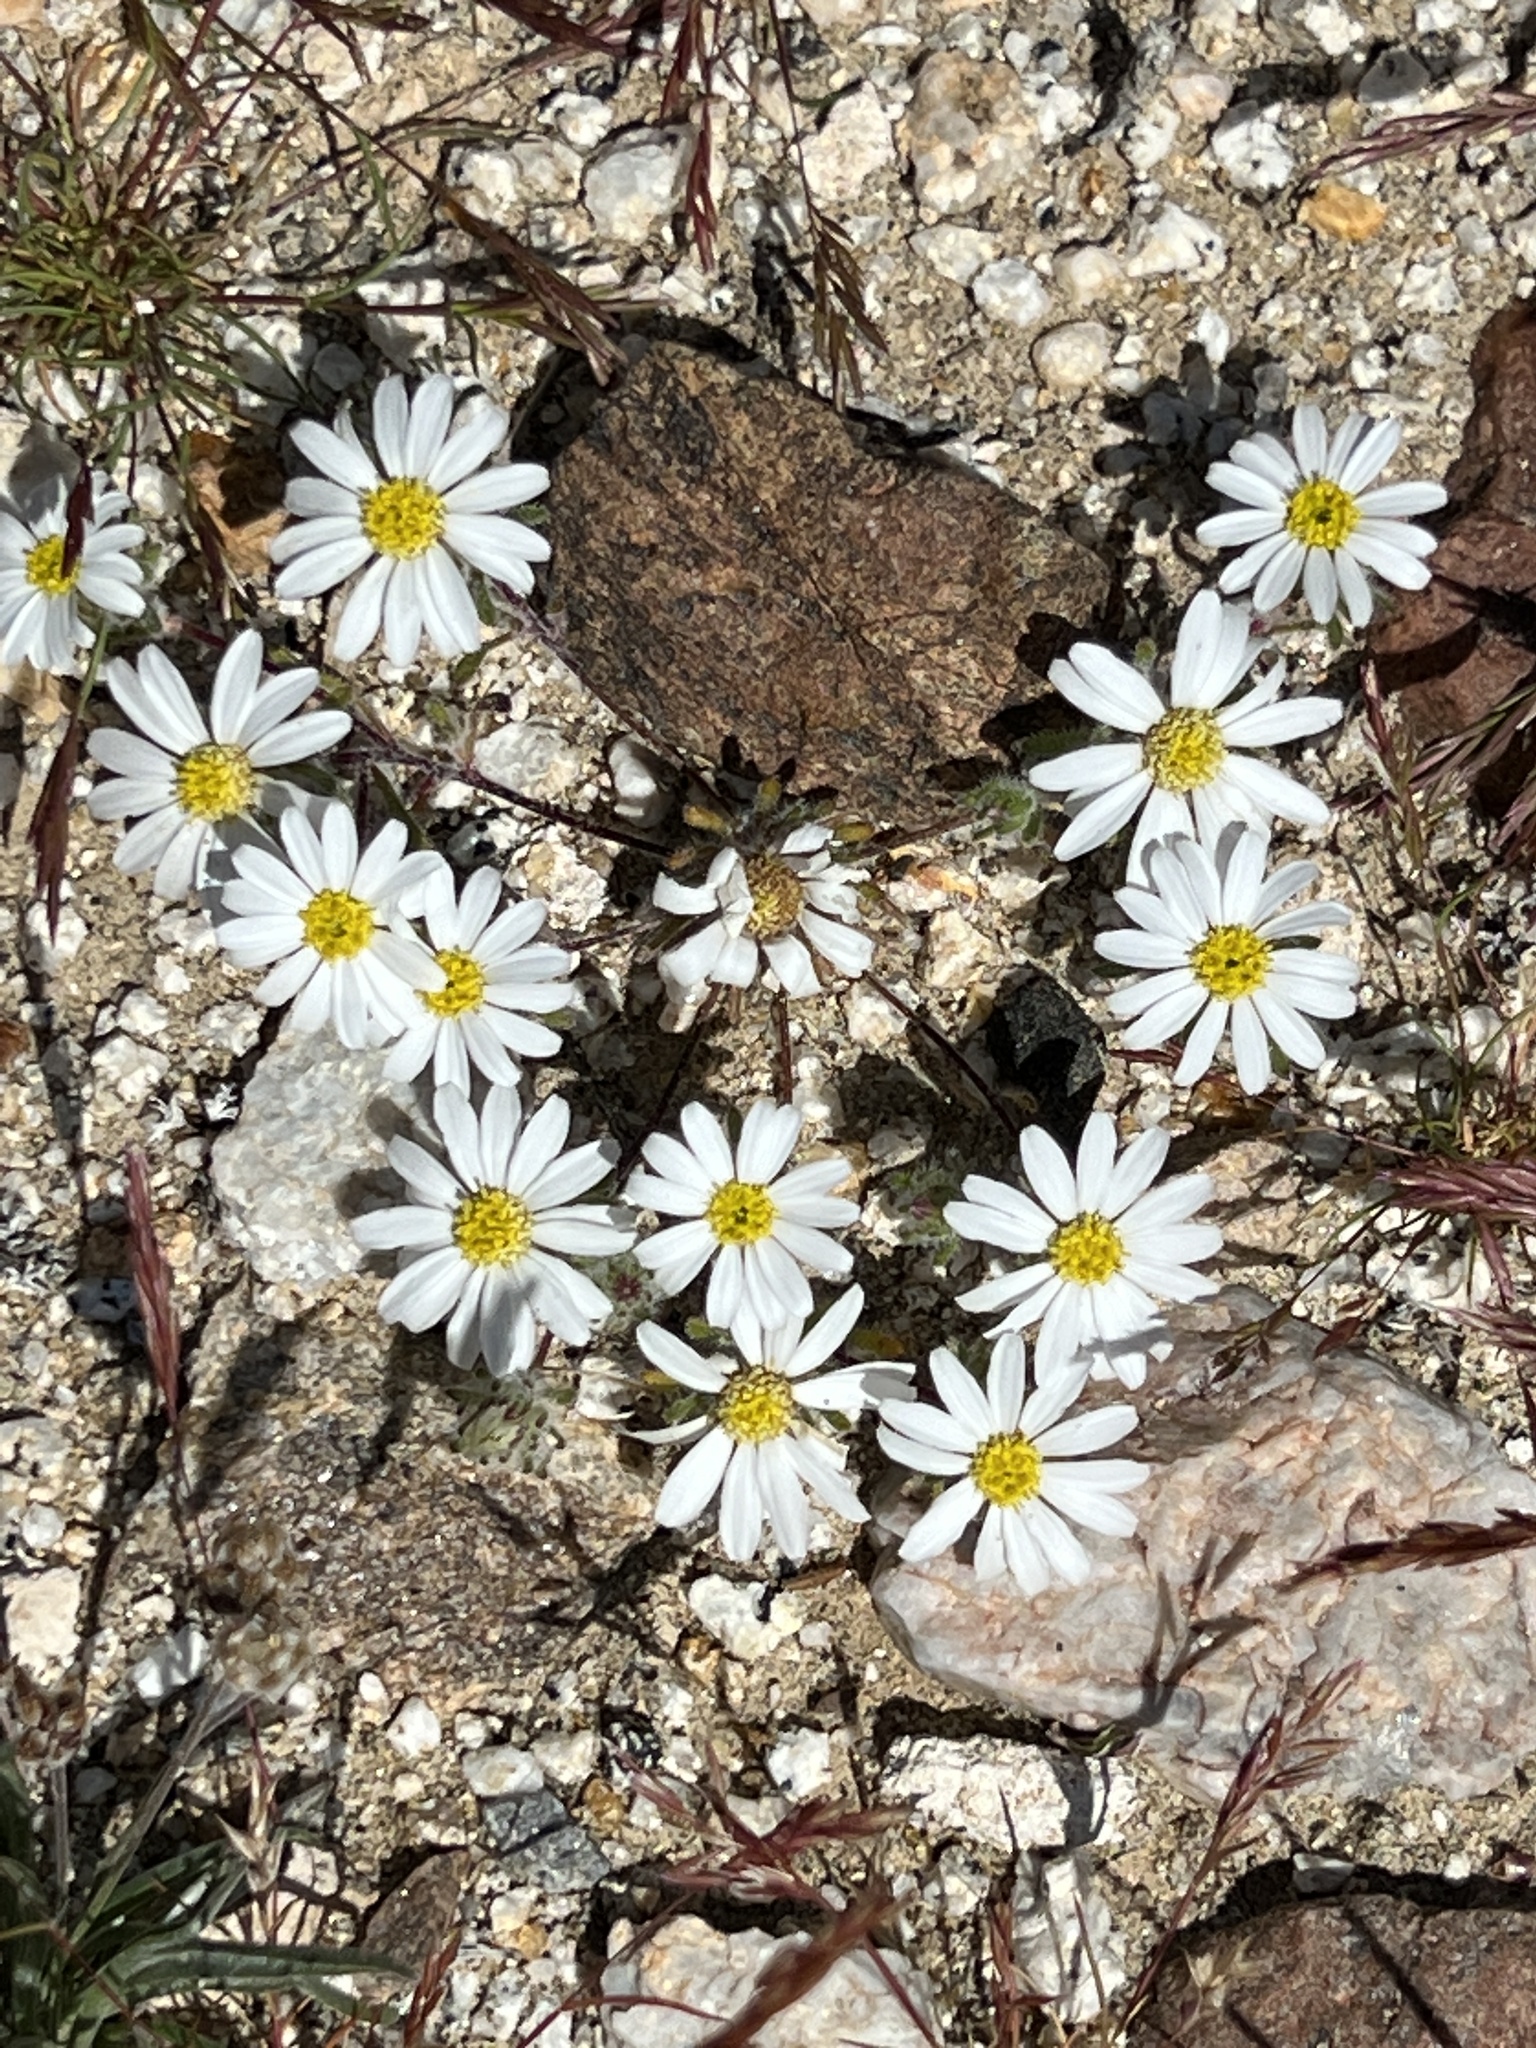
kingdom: Plantae
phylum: Tracheophyta
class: Magnoliopsida
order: Asterales
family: Asteraceae
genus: Monoptilon
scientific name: Monoptilon bellioides
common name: Bristly desertstar
